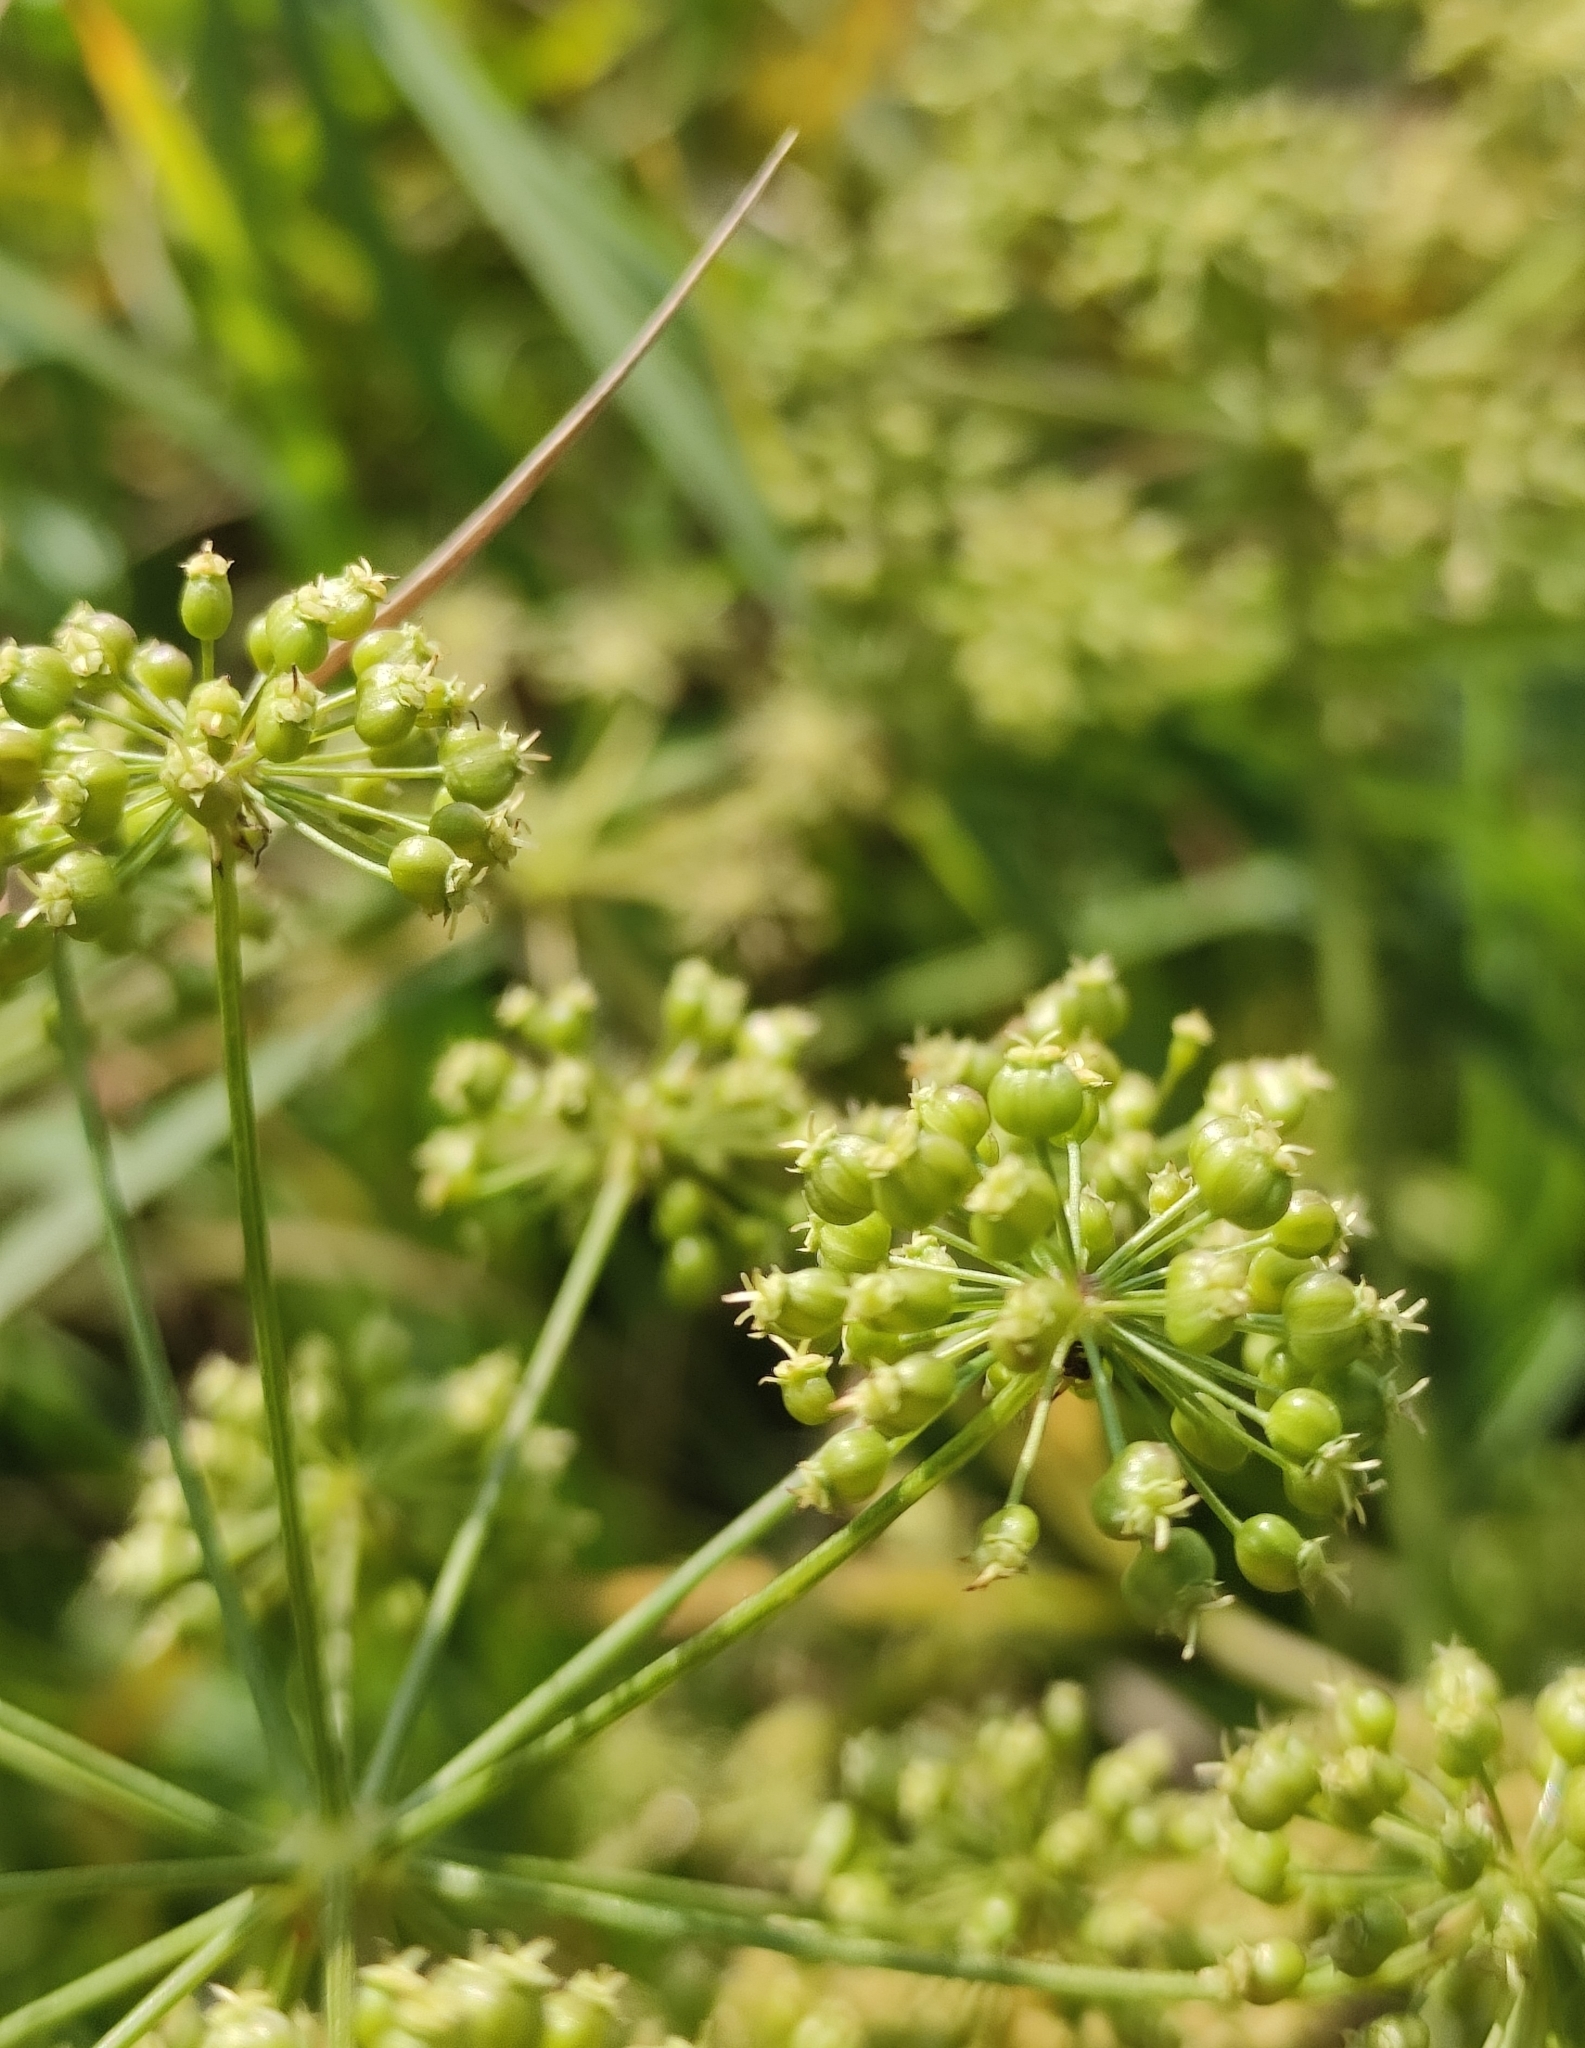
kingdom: Plantae
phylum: Tracheophyta
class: Magnoliopsida
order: Apiales
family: Apiaceae
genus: Cicuta
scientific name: Cicuta virosa
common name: Cowbane
